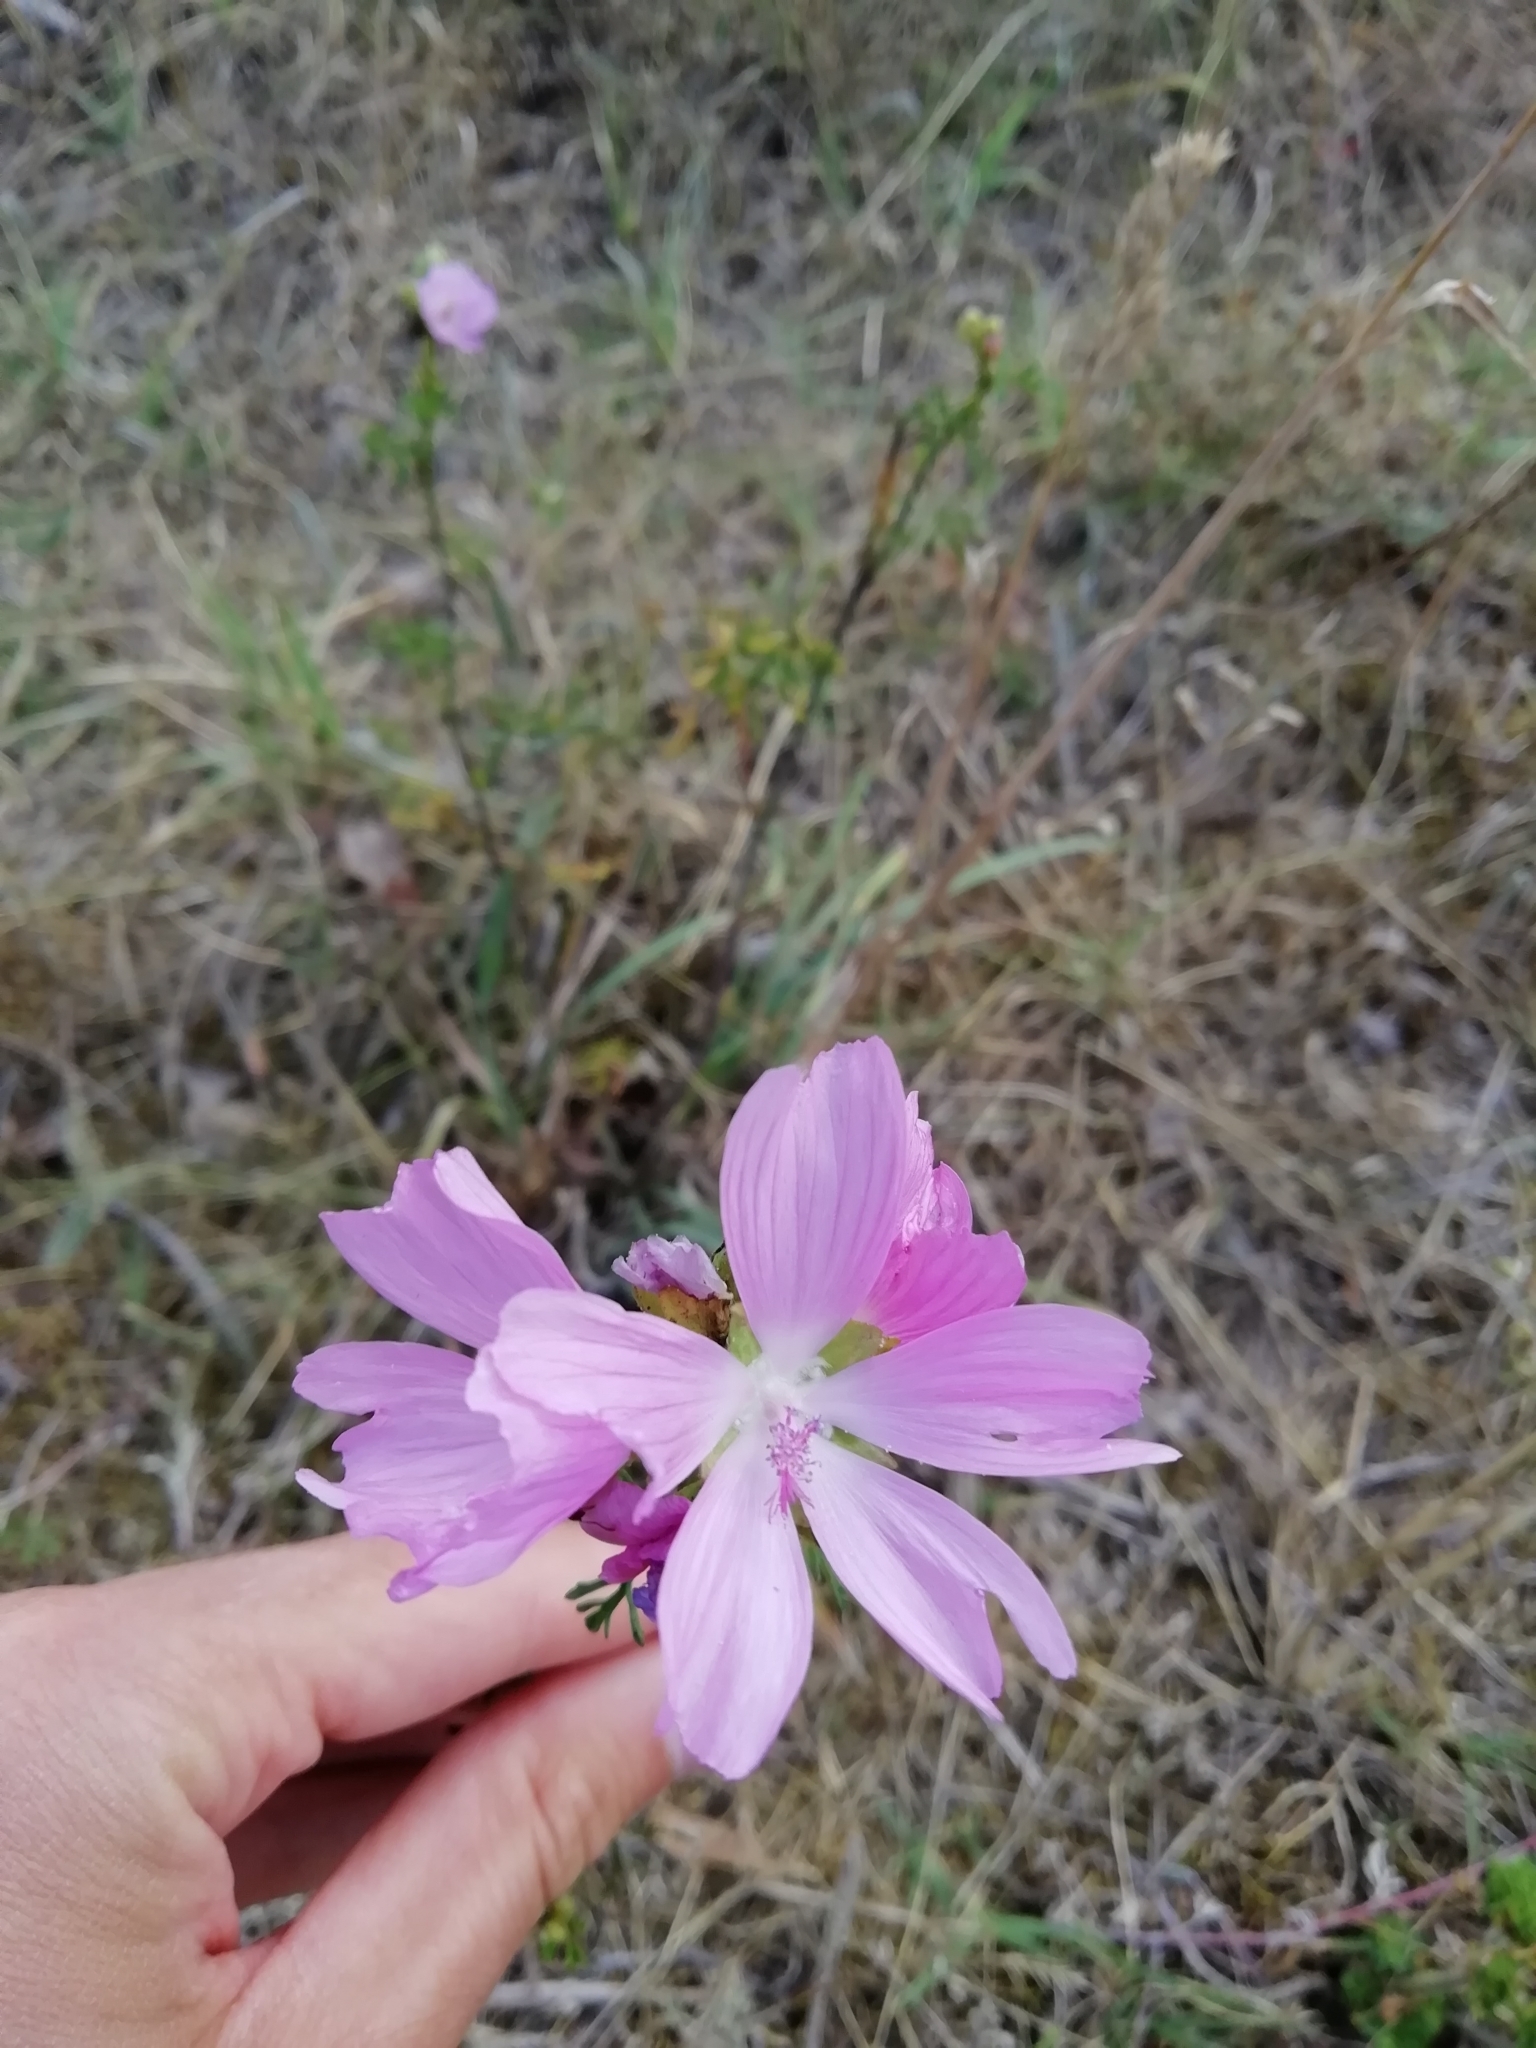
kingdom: Plantae
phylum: Tracheophyta
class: Magnoliopsida
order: Malvales
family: Malvaceae
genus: Malva
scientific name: Malva moschata
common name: Musk mallow
